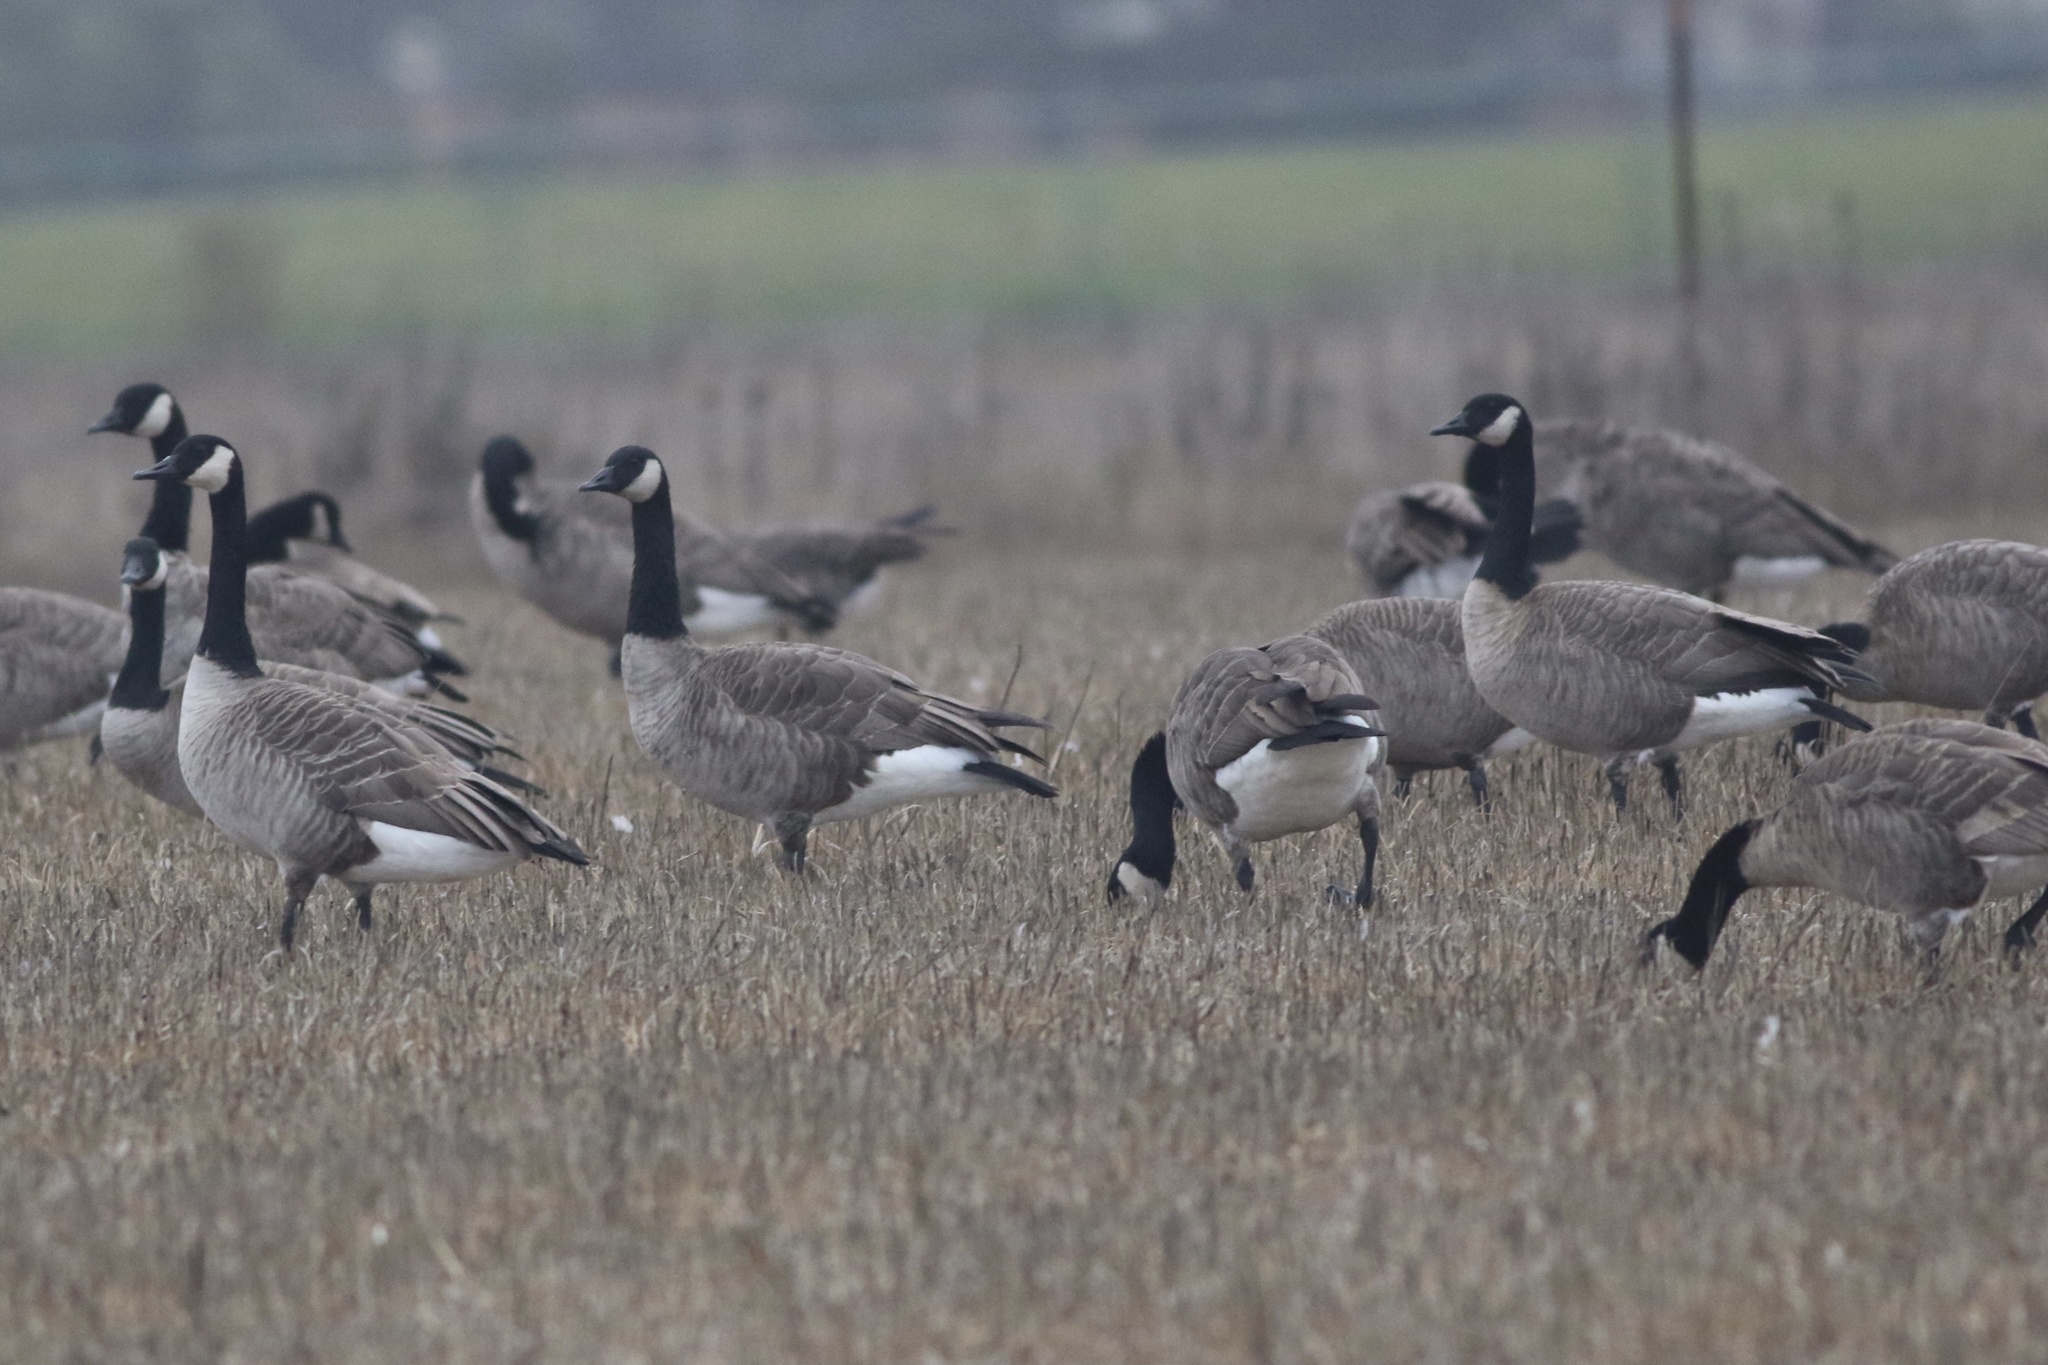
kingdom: Animalia
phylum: Chordata
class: Aves
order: Anseriformes
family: Anatidae
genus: Branta
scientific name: Branta canadensis
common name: Canada goose
